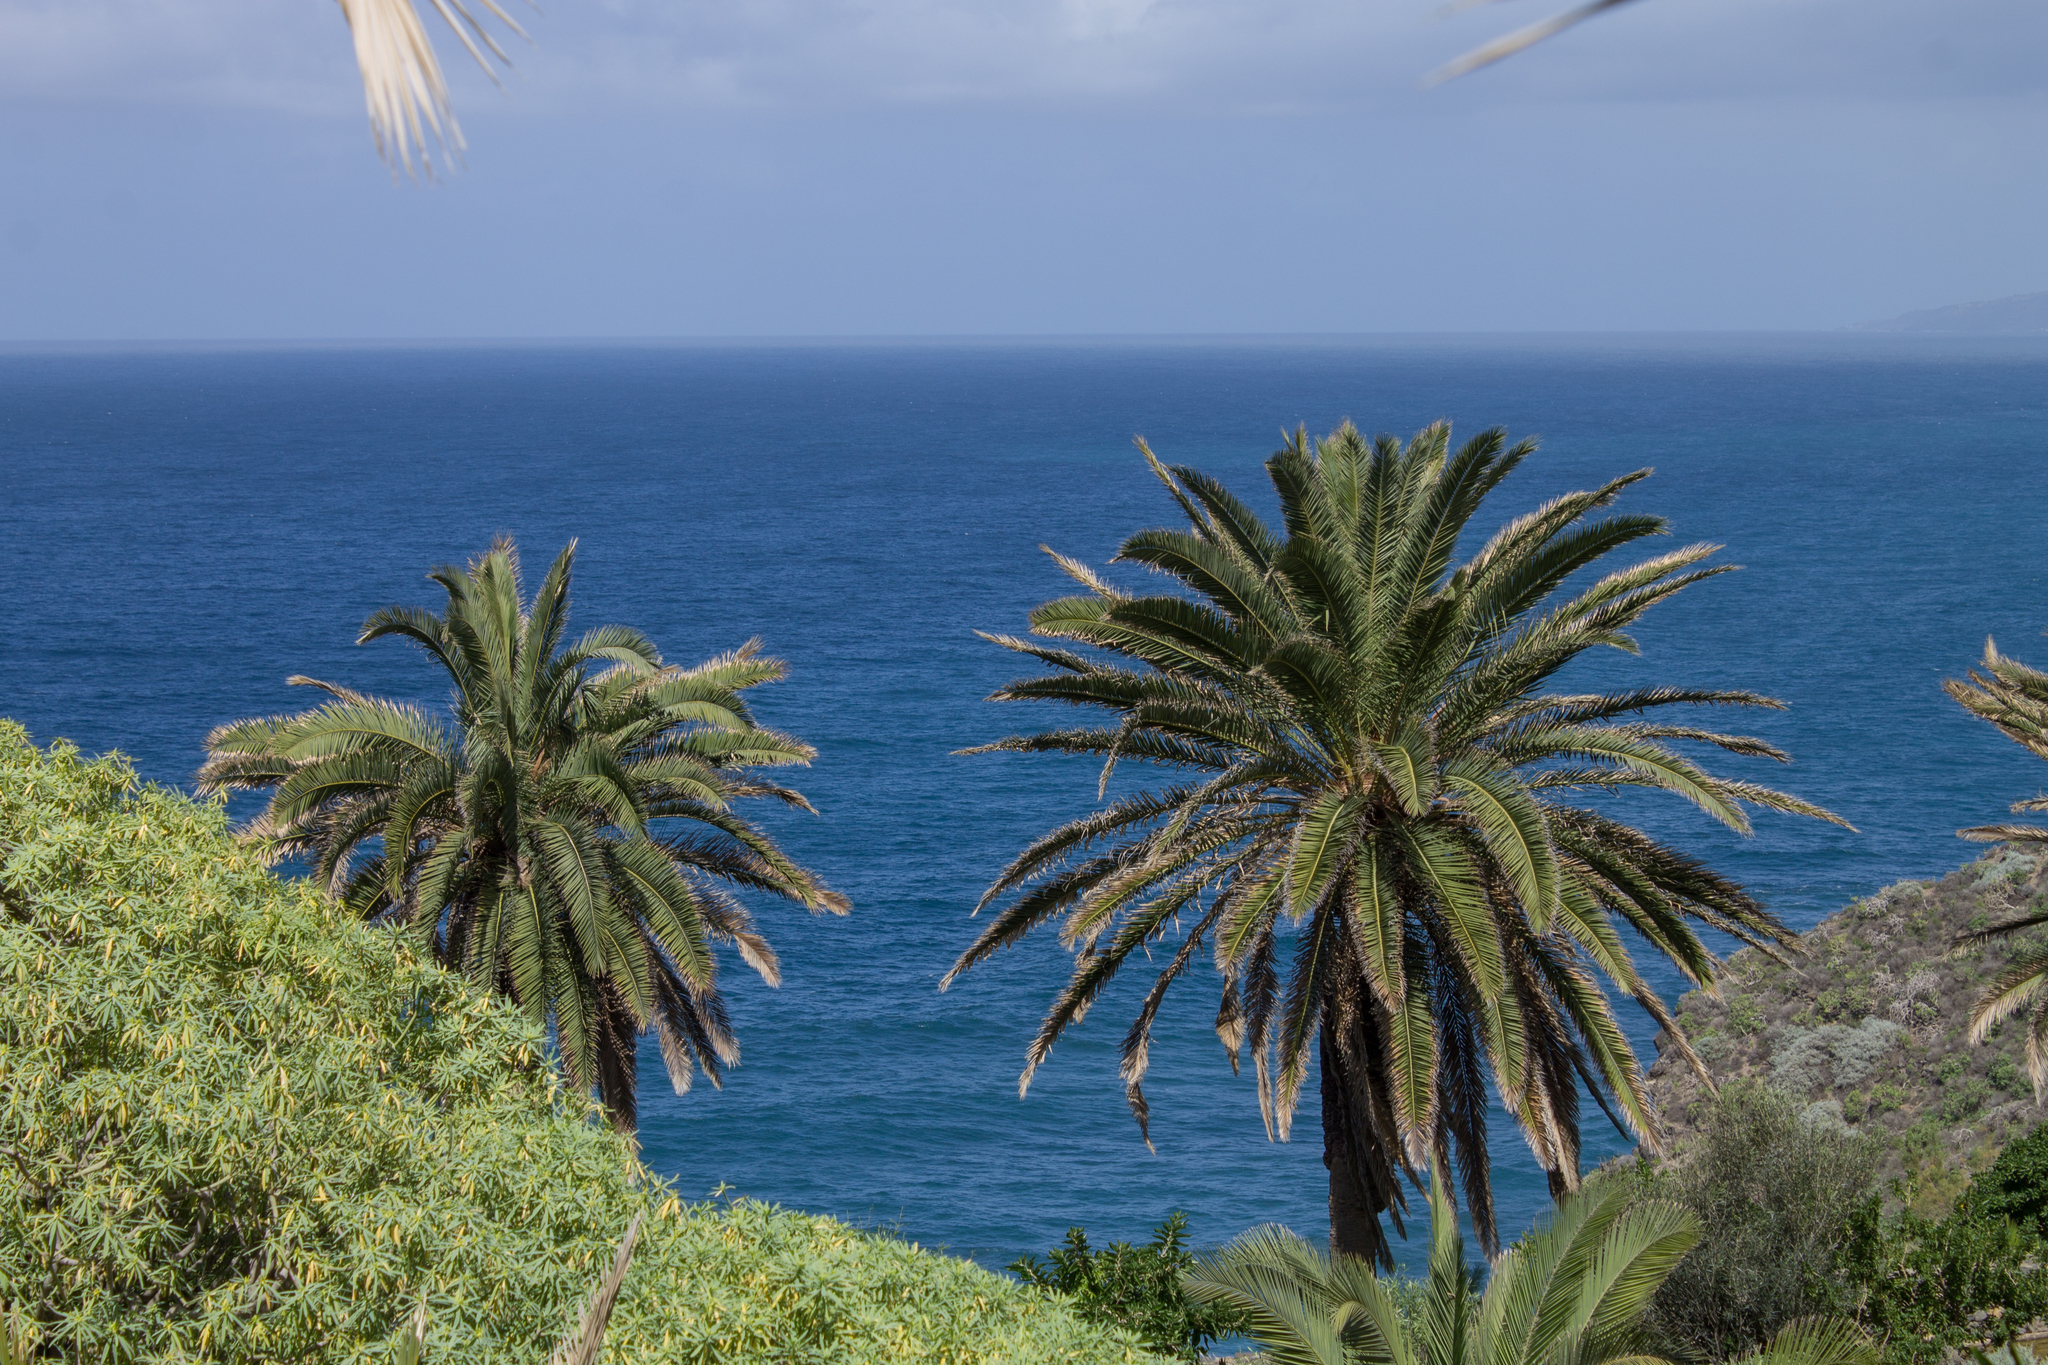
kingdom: Plantae
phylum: Tracheophyta
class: Liliopsida
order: Arecales
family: Arecaceae
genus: Phoenix
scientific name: Phoenix canariensis
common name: Canary island date palm
